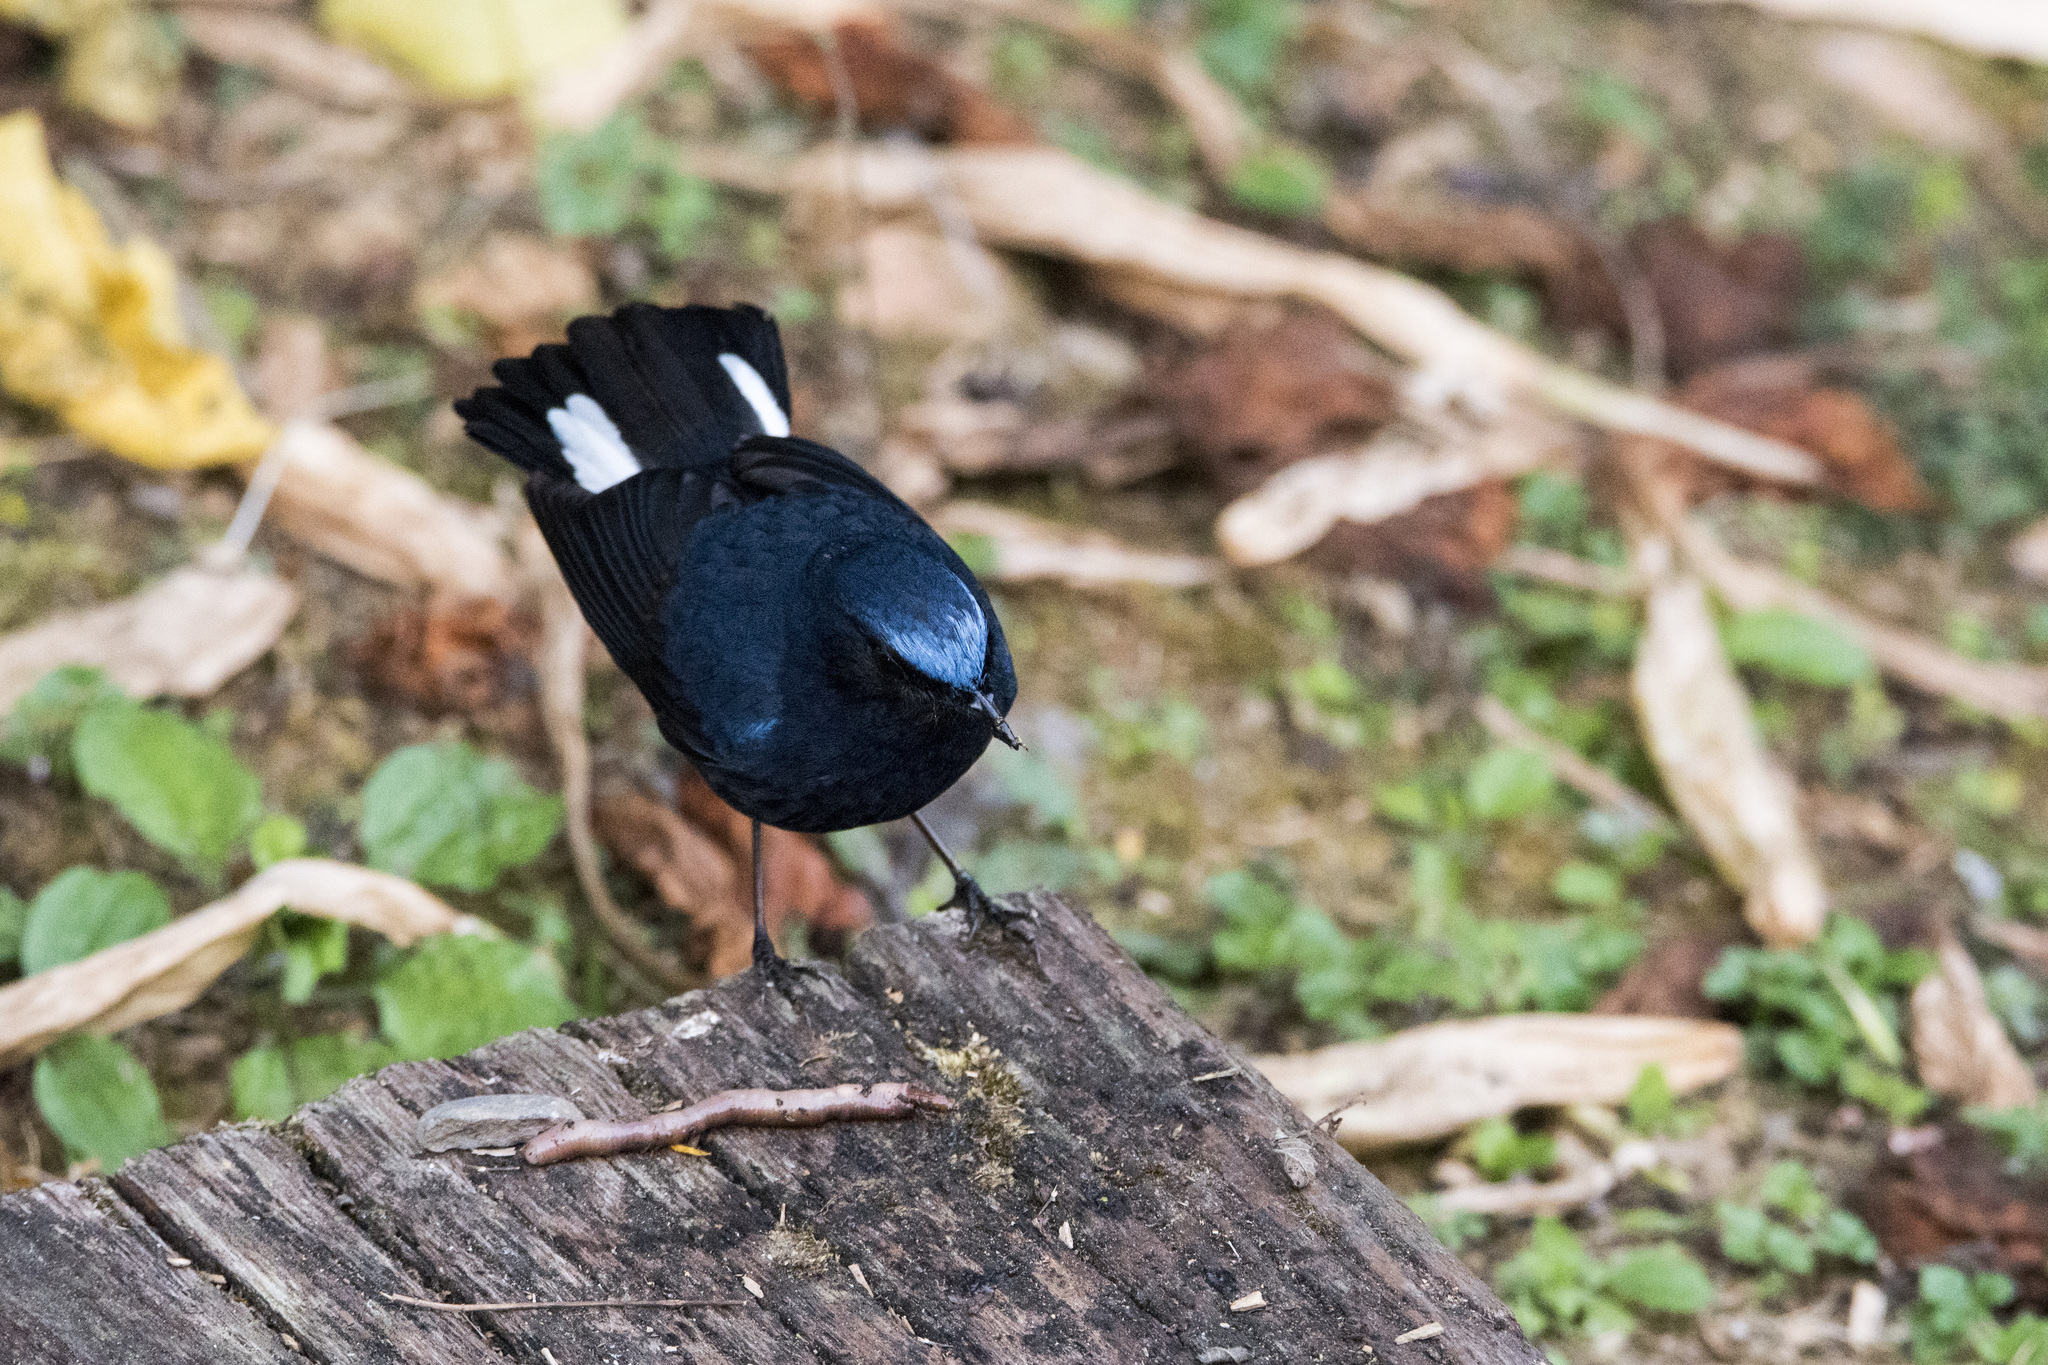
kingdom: Animalia
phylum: Chordata
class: Aves
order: Passeriformes
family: Muscicapidae
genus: Myiomela
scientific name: Myiomela leucura
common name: White-tailed robin
